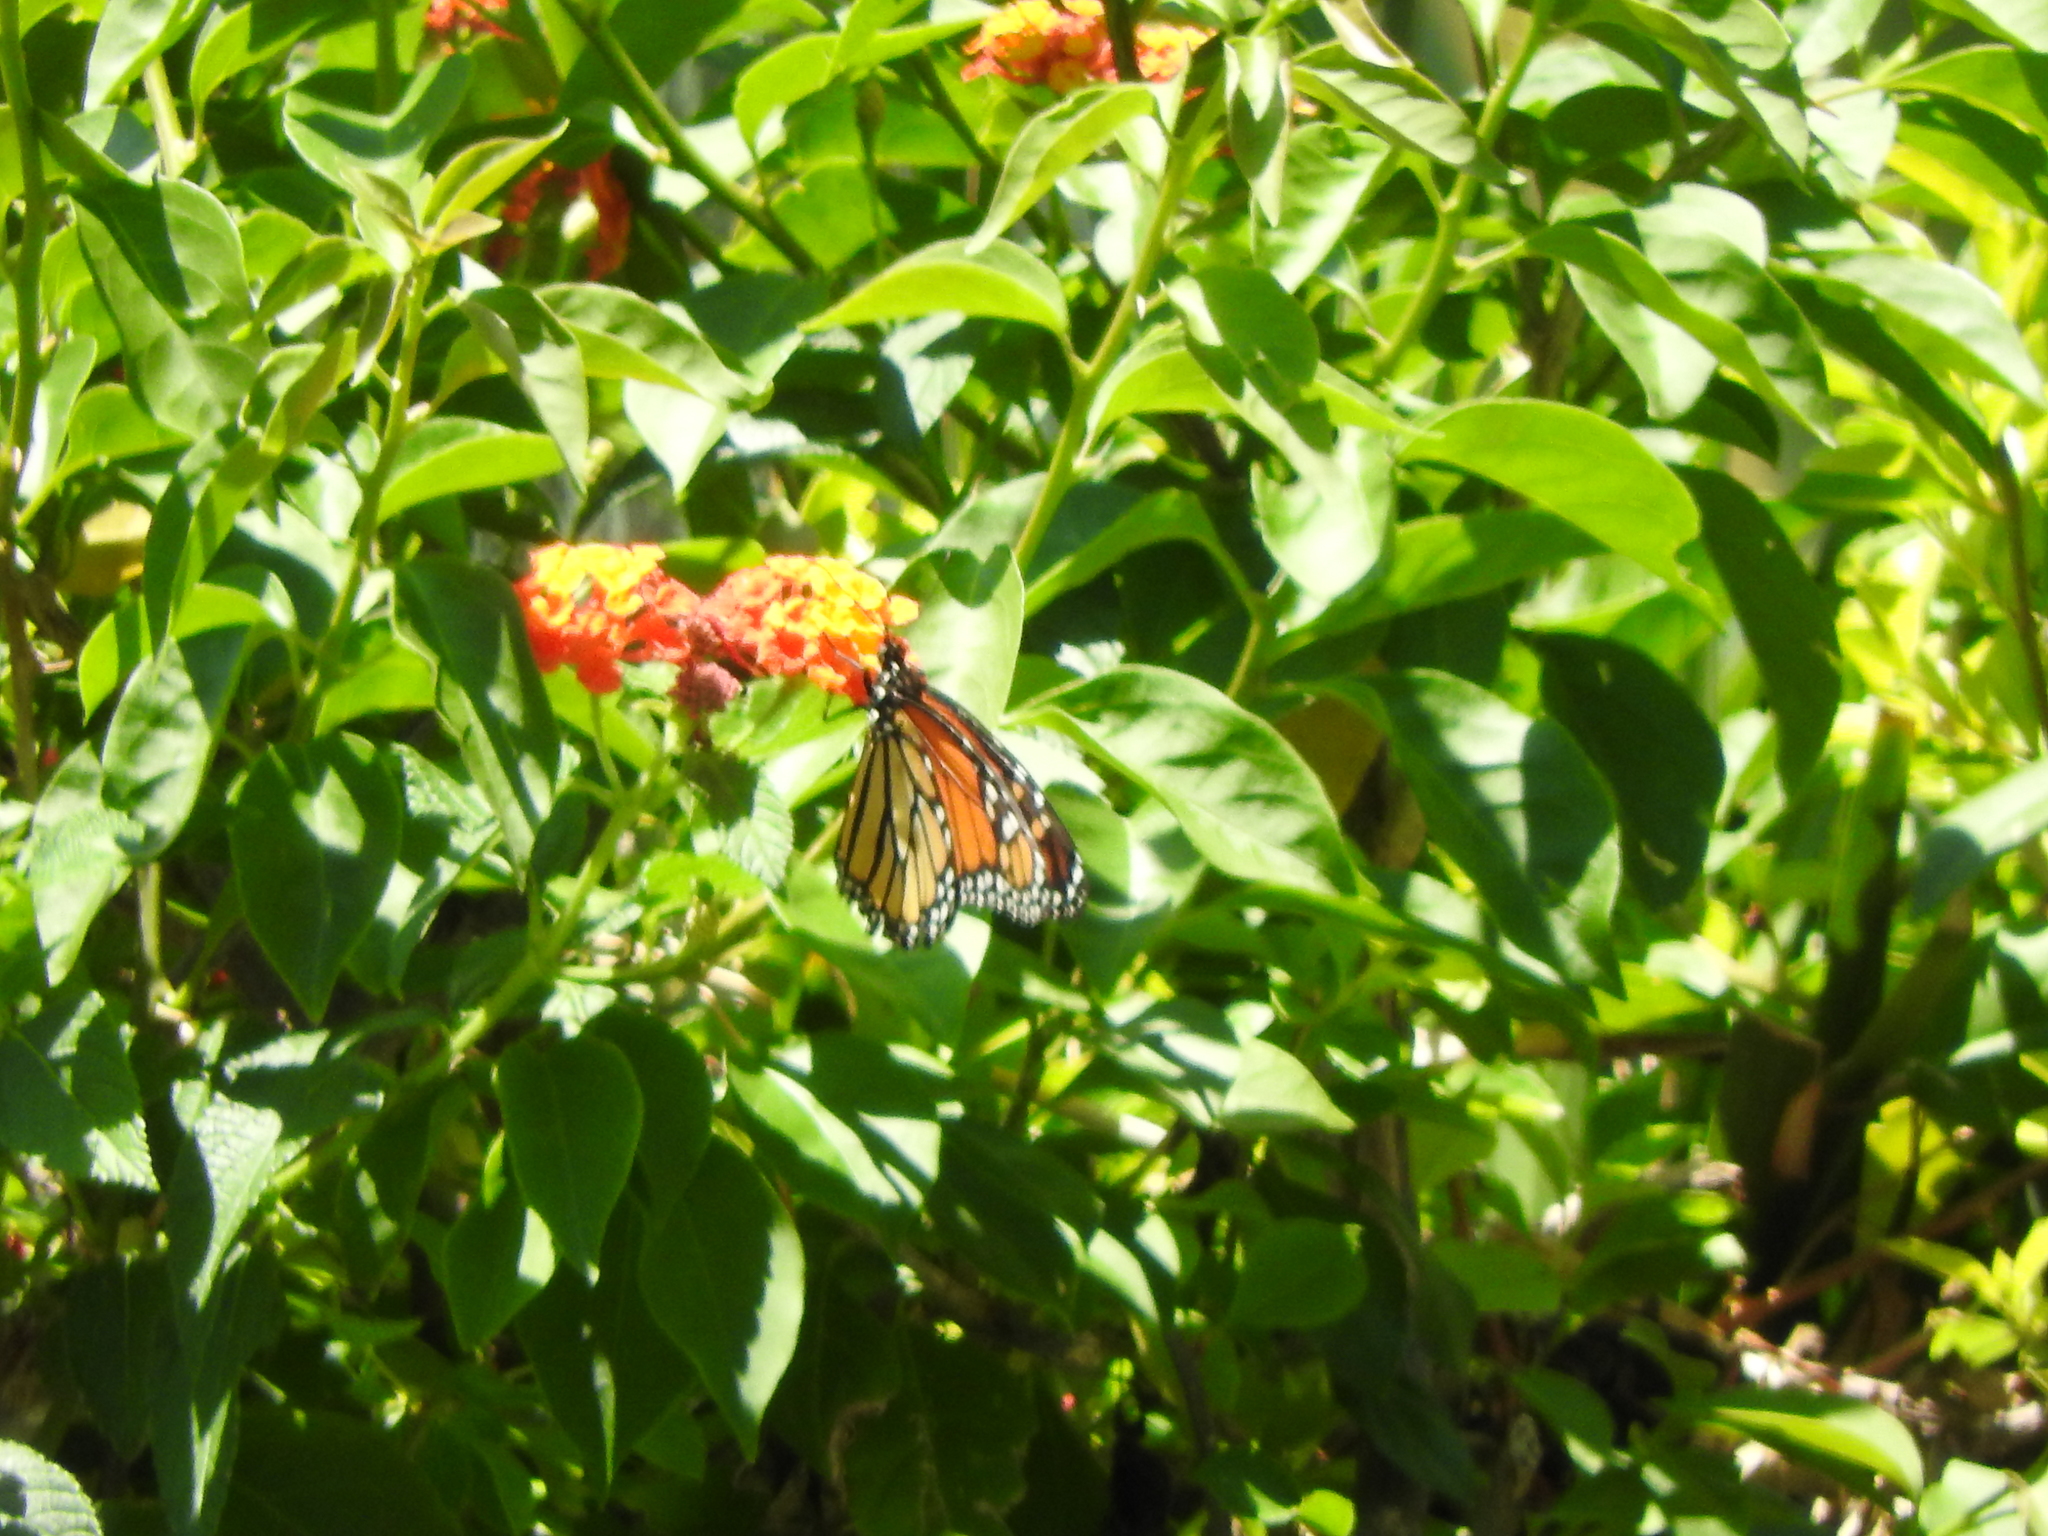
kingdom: Animalia
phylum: Arthropoda
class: Insecta
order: Lepidoptera
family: Nymphalidae
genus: Danaus
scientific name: Danaus plexippus
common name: Monarch
